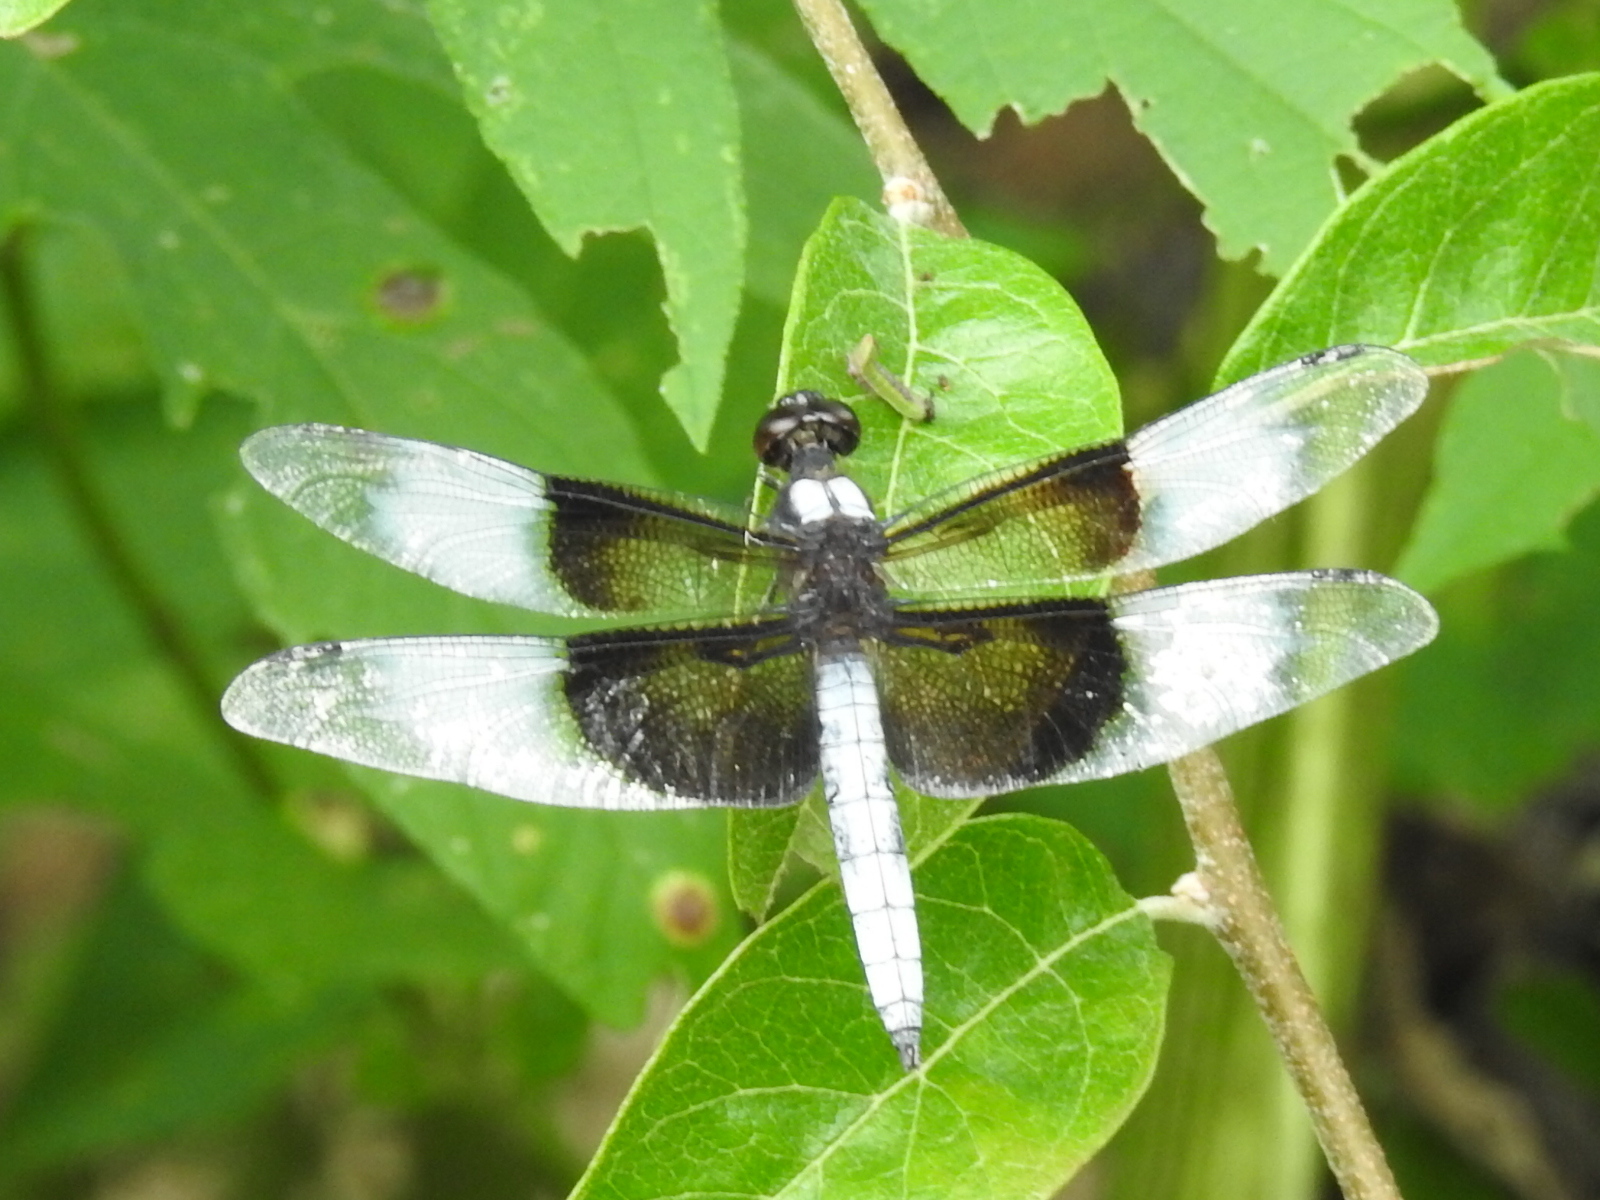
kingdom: Animalia
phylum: Arthropoda
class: Insecta
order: Odonata
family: Libellulidae
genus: Libellula
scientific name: Libellula luctuosa
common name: Widow skimmer
